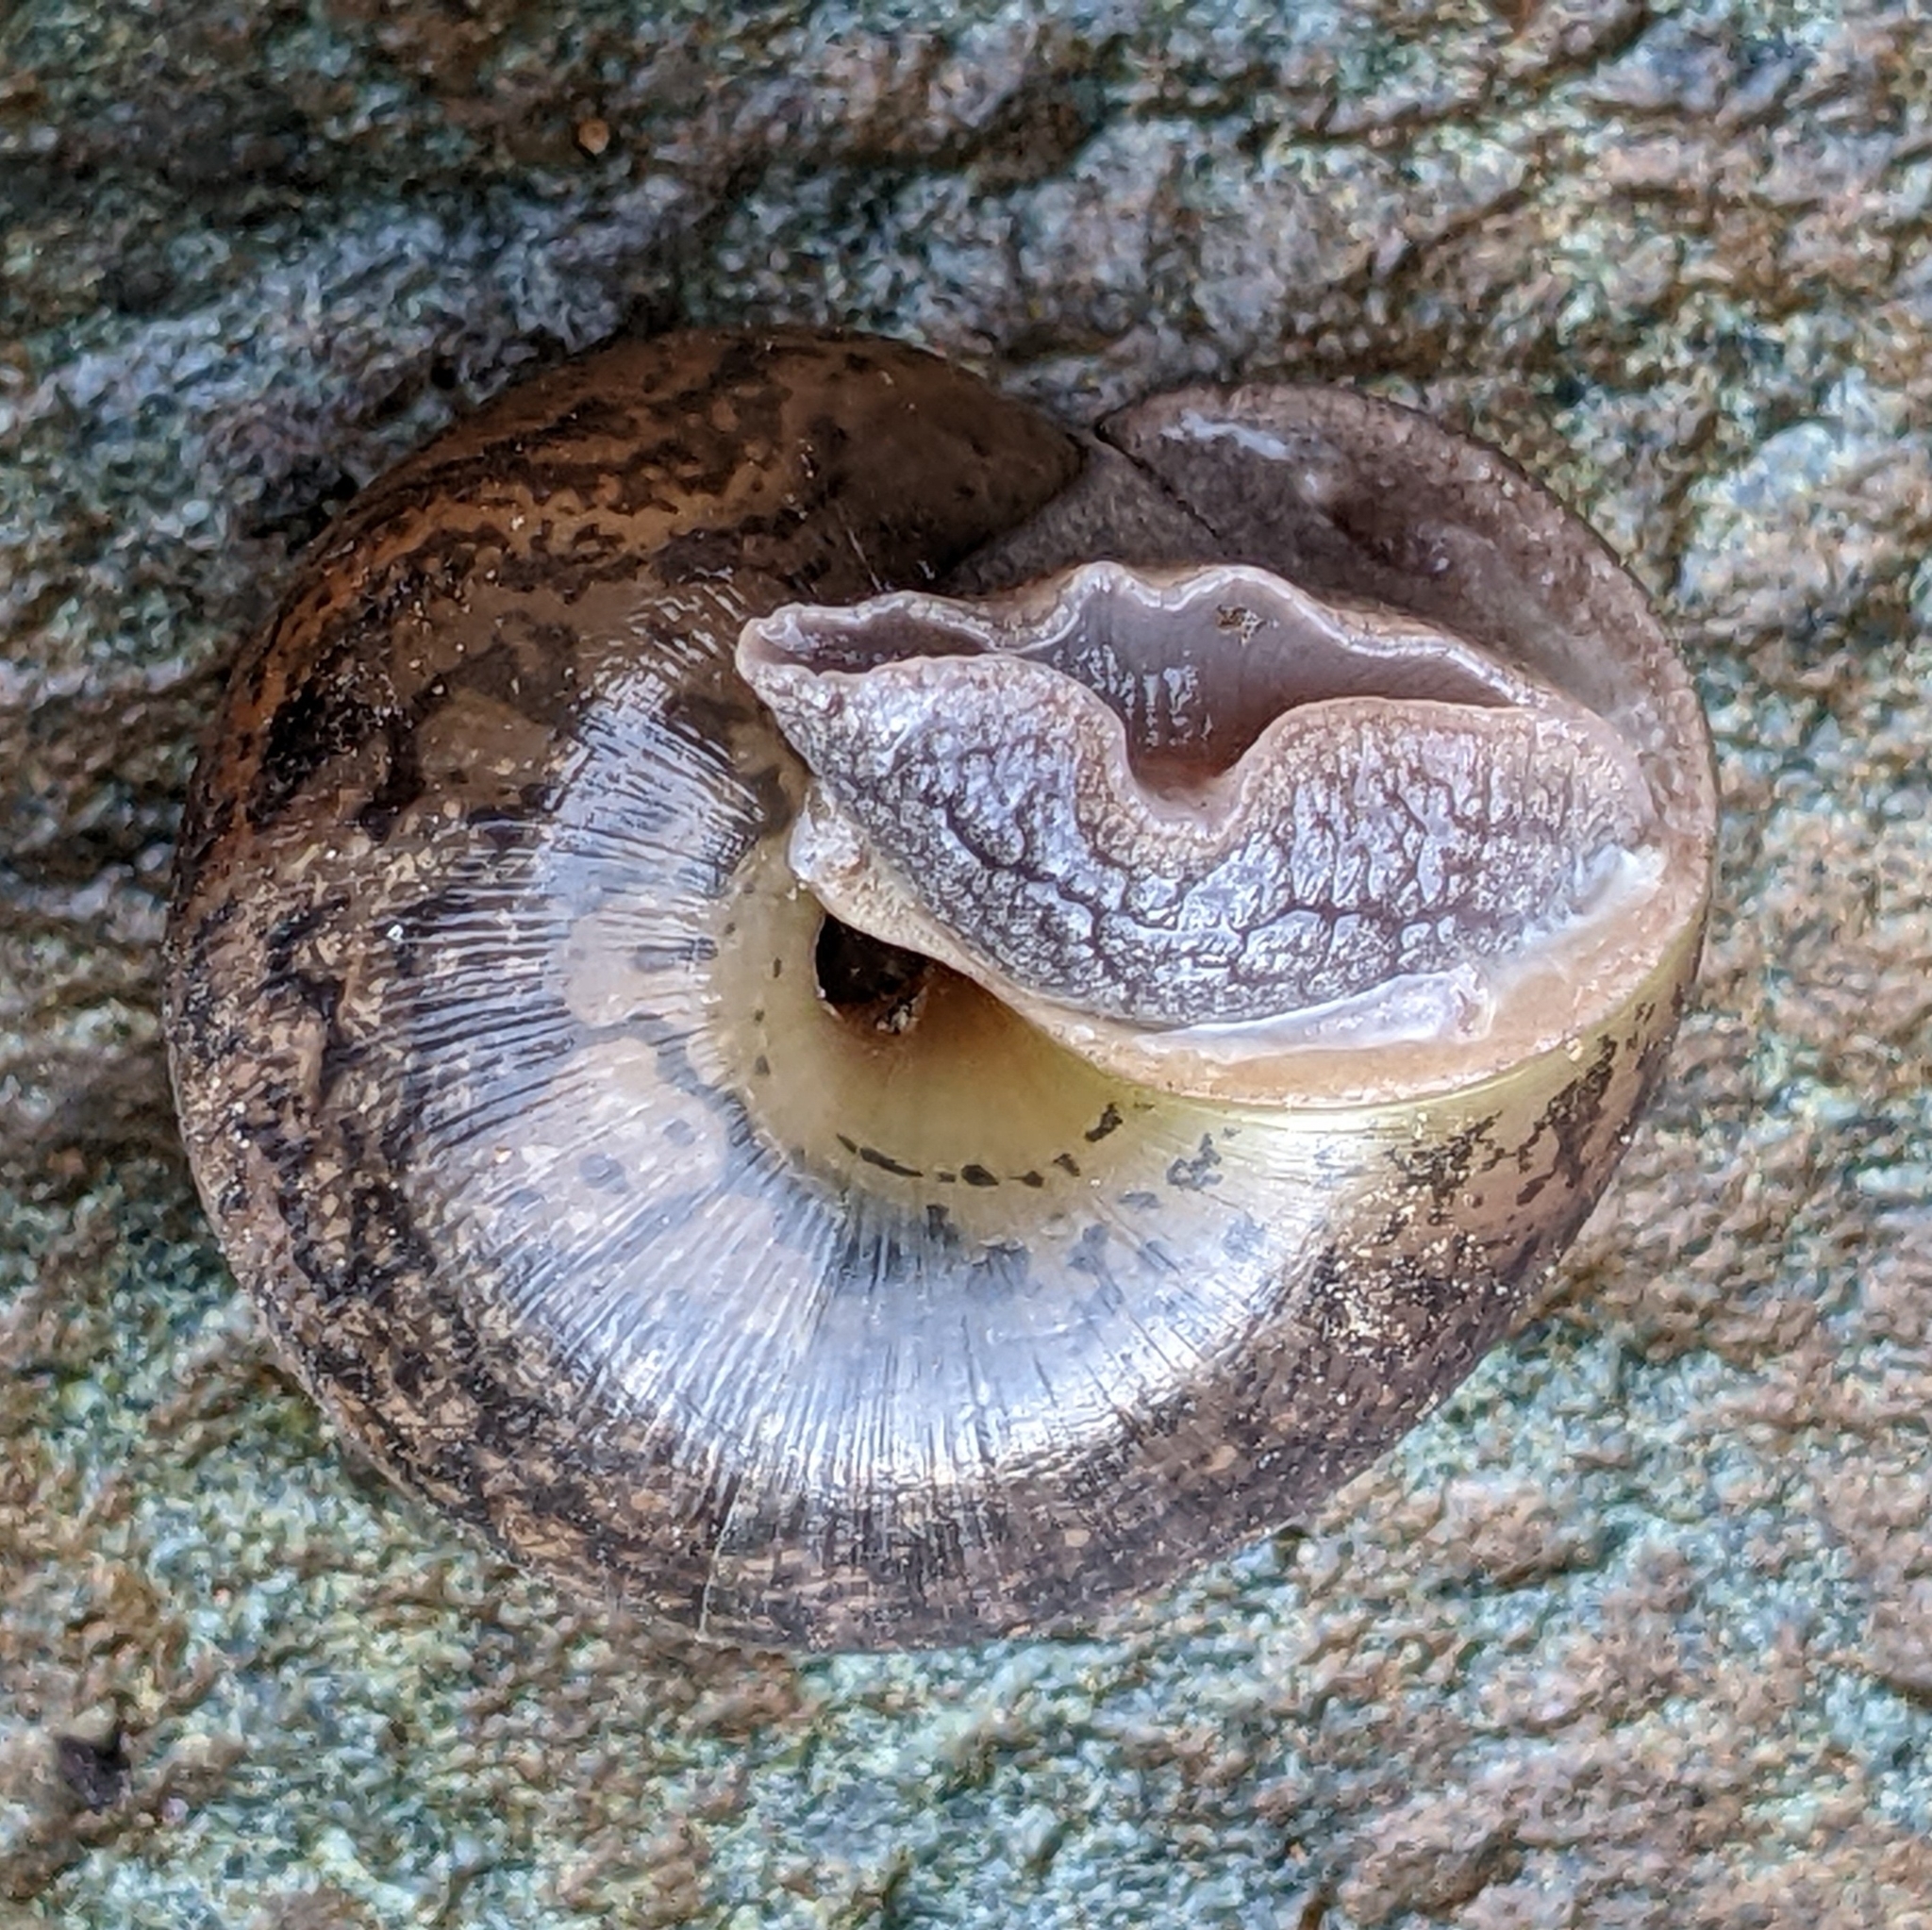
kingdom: Animalia
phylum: Mollusca
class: Gastropoda
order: Stylommatophora
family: Xanthonychidae
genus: Helminthoglypta
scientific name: Helminthoglypta cypreophila
